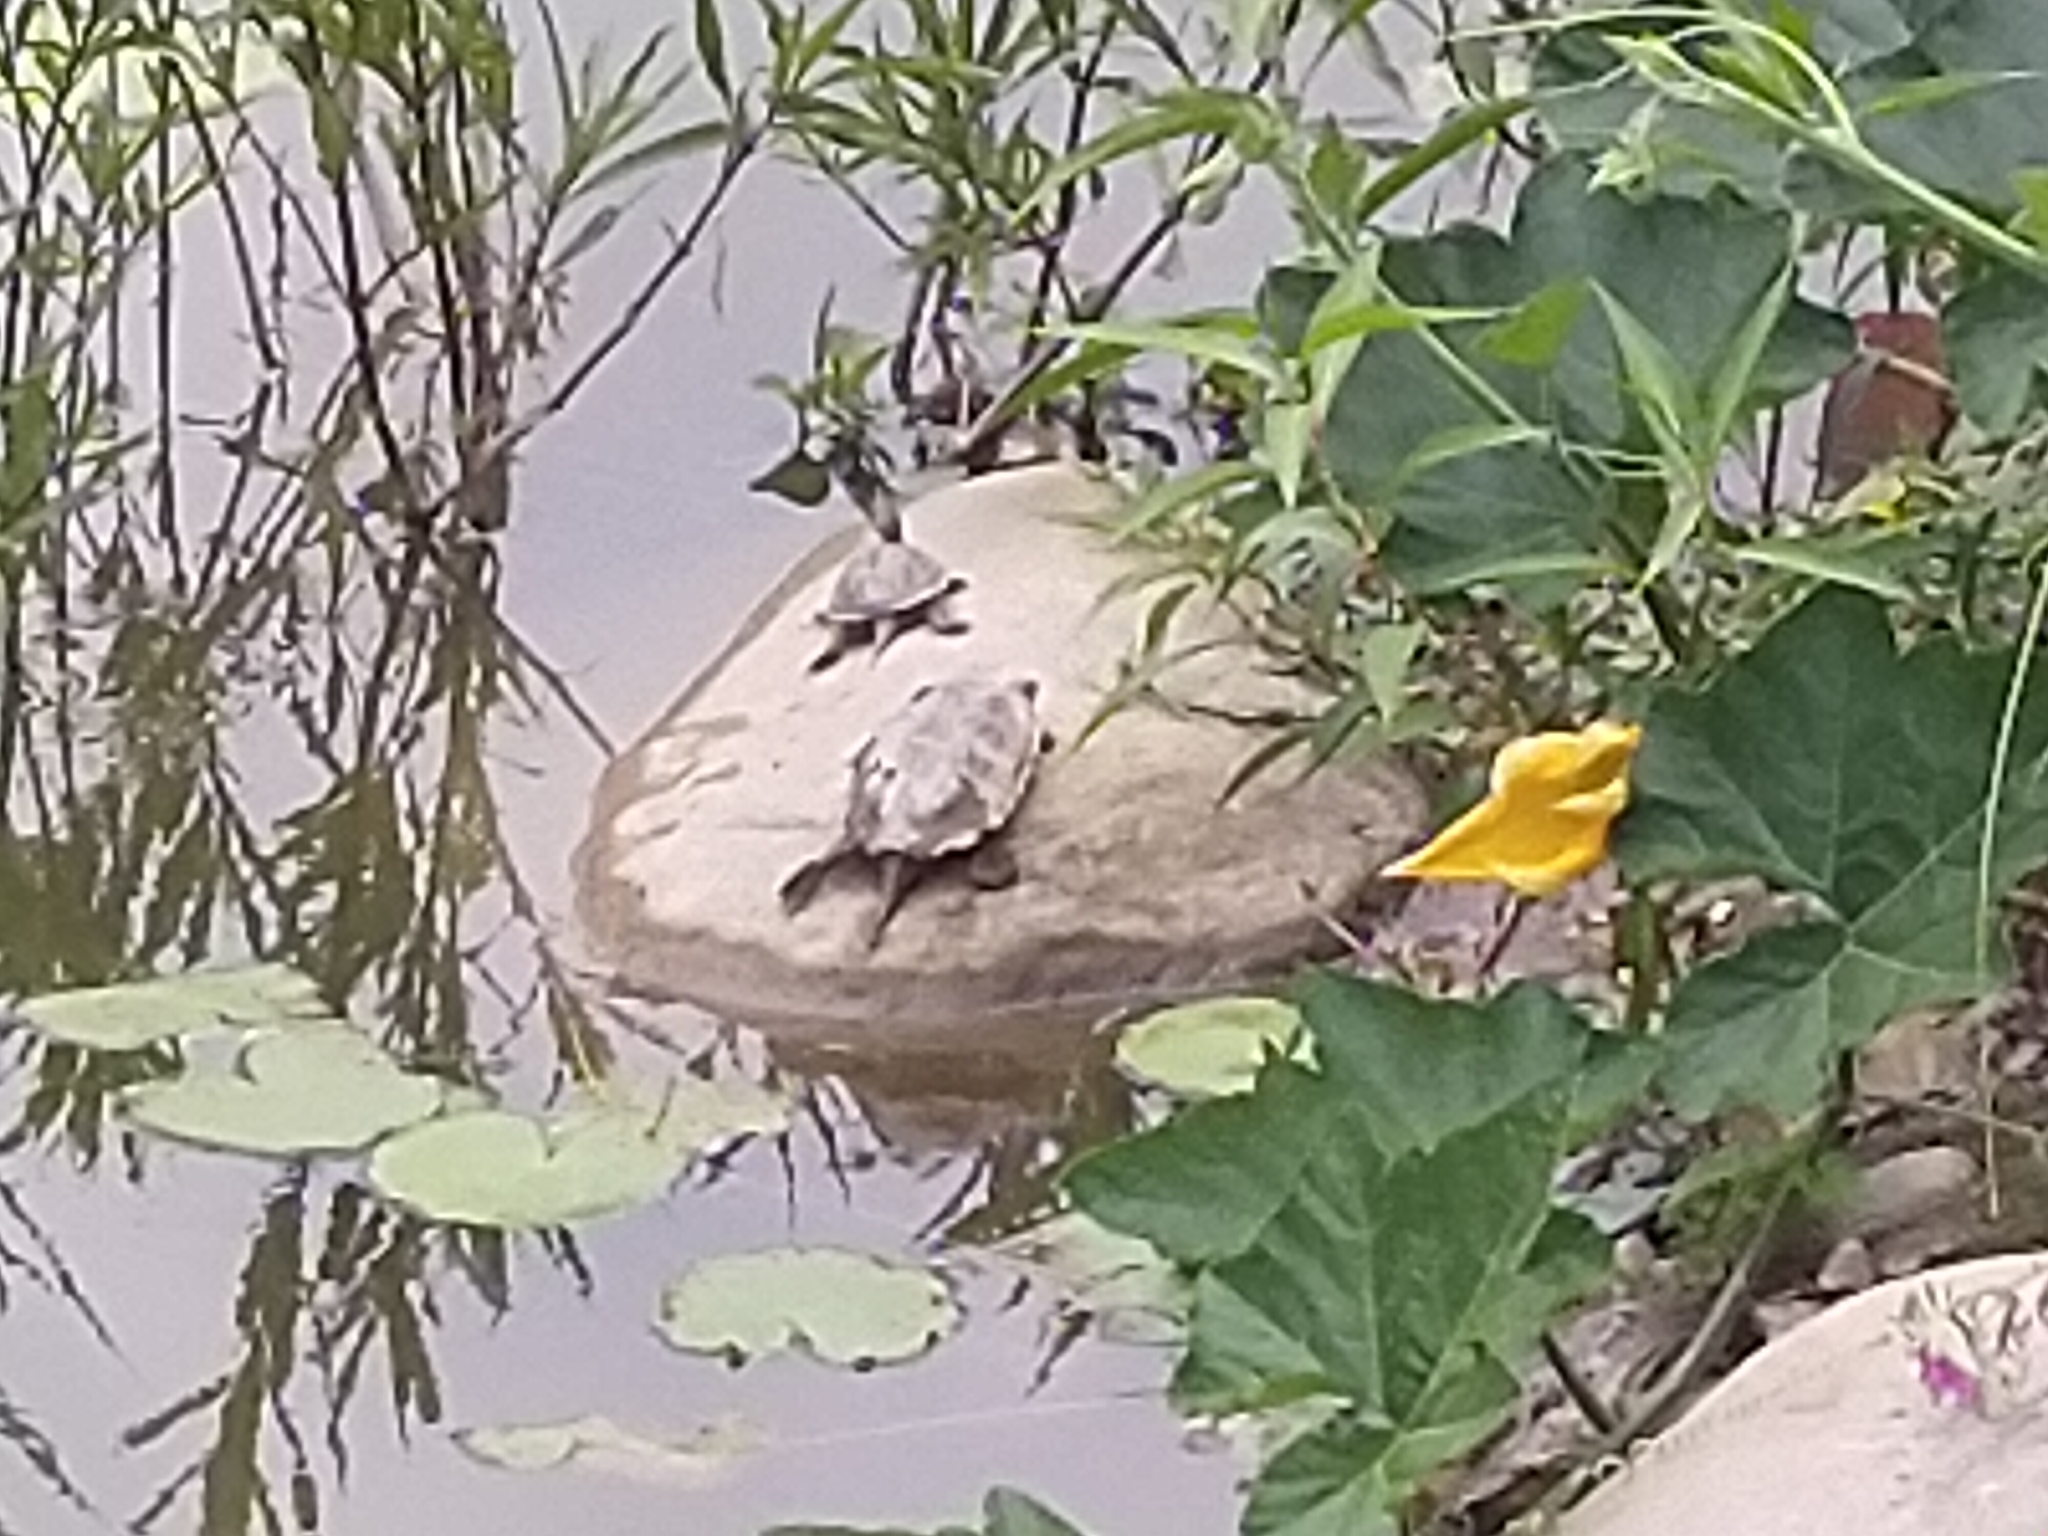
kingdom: Animalia
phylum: Chordata
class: Testudines
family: Geoemydidae
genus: Mauremys
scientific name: Mauremys sinensis
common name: Chinese stripe-necked turtle
